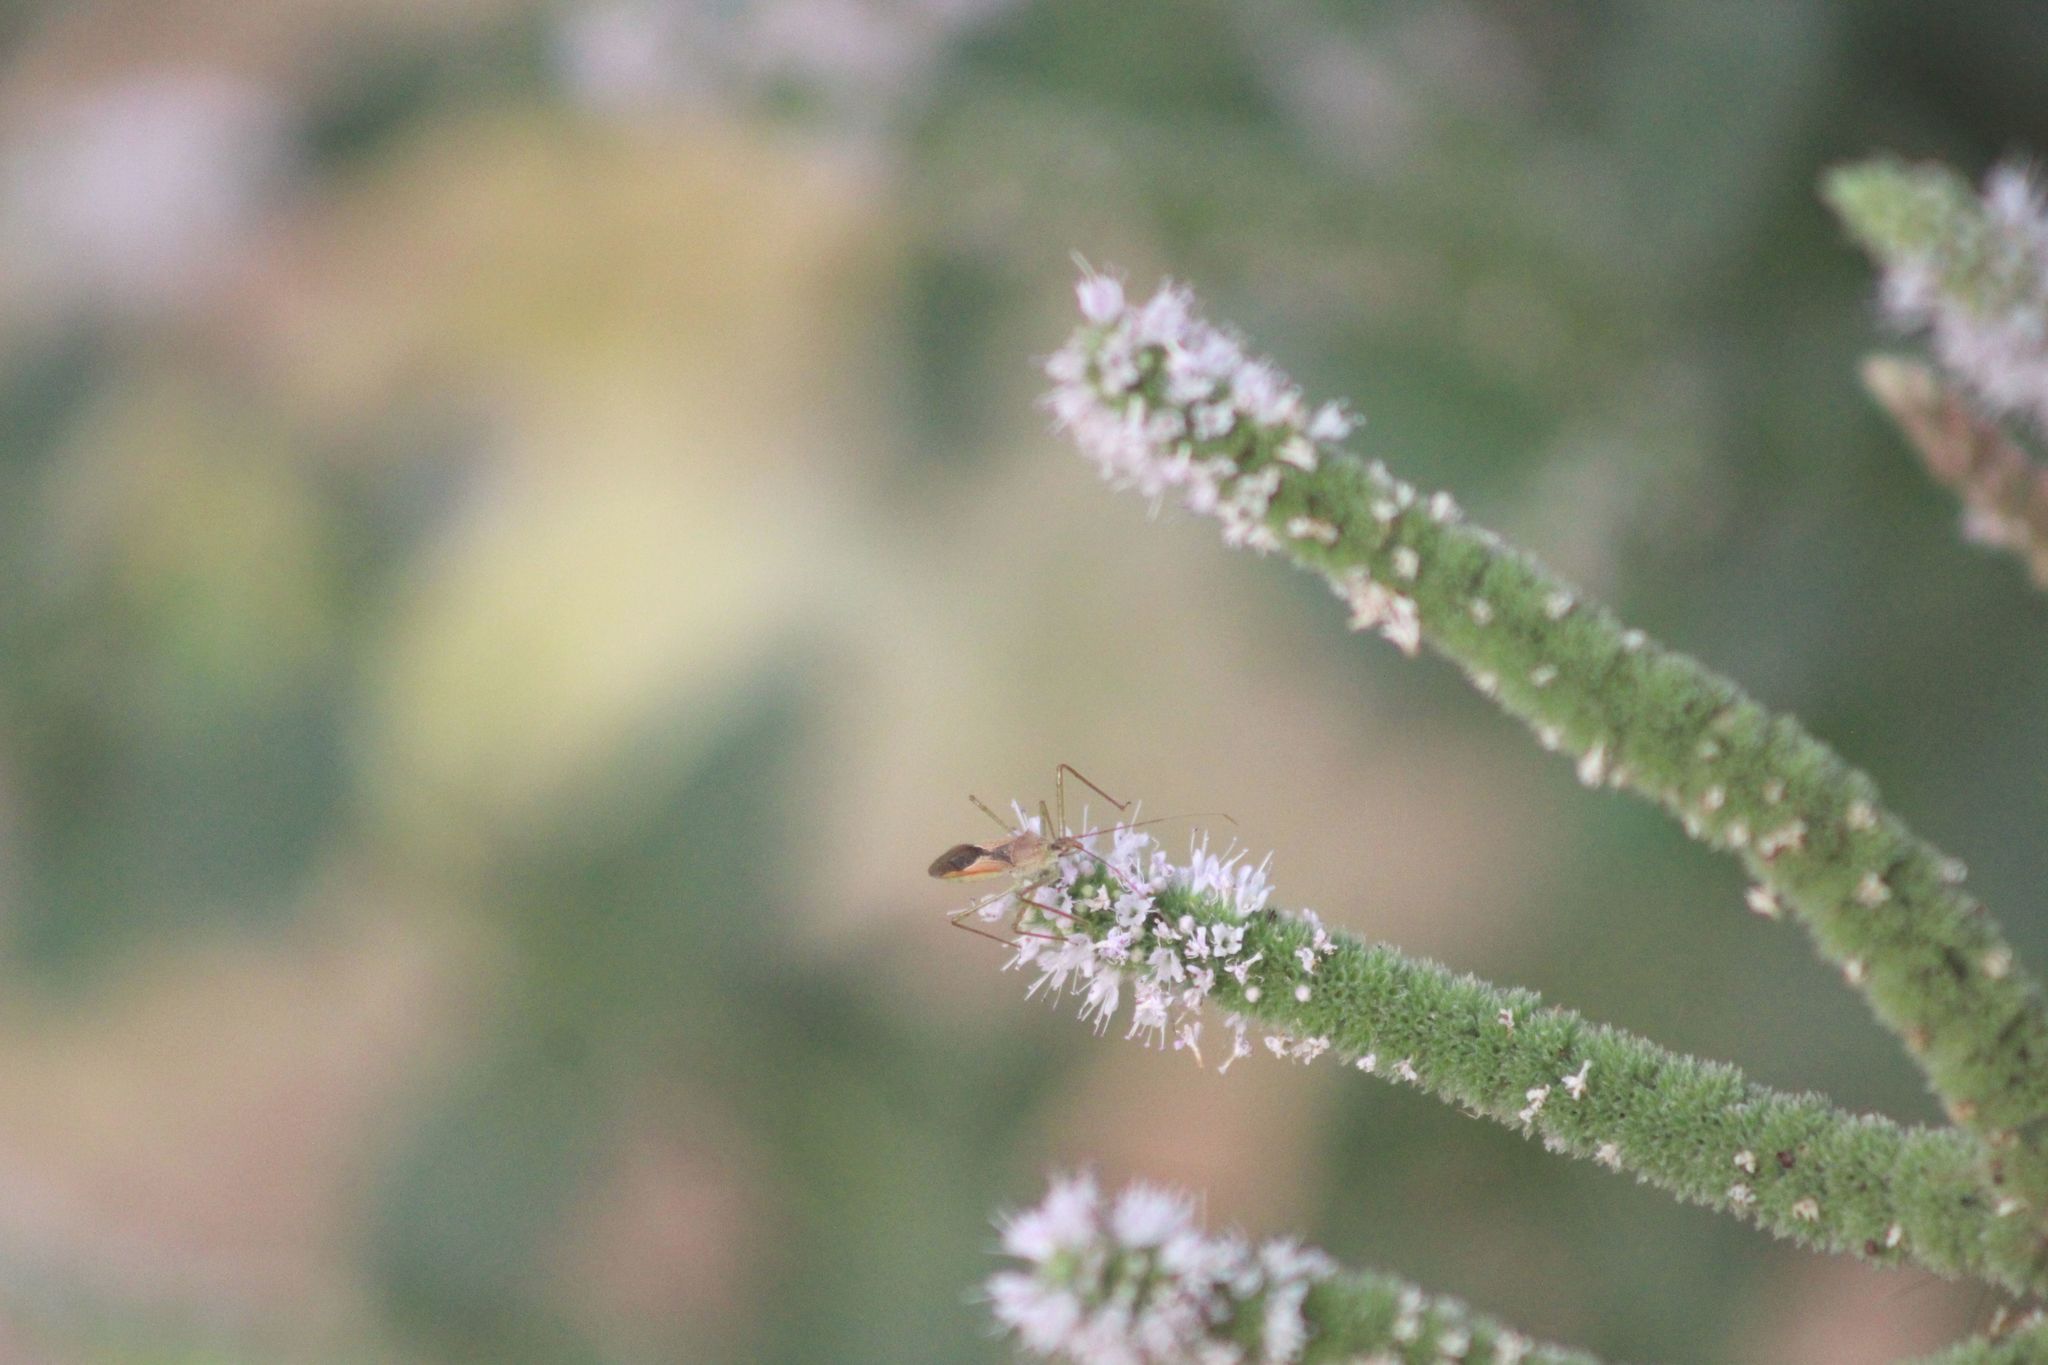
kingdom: Animalia
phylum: Arthropoda
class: Insecta
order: Hemiptera
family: Reduviidae
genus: Zelus
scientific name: Zelus renardii
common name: Assassin bug
